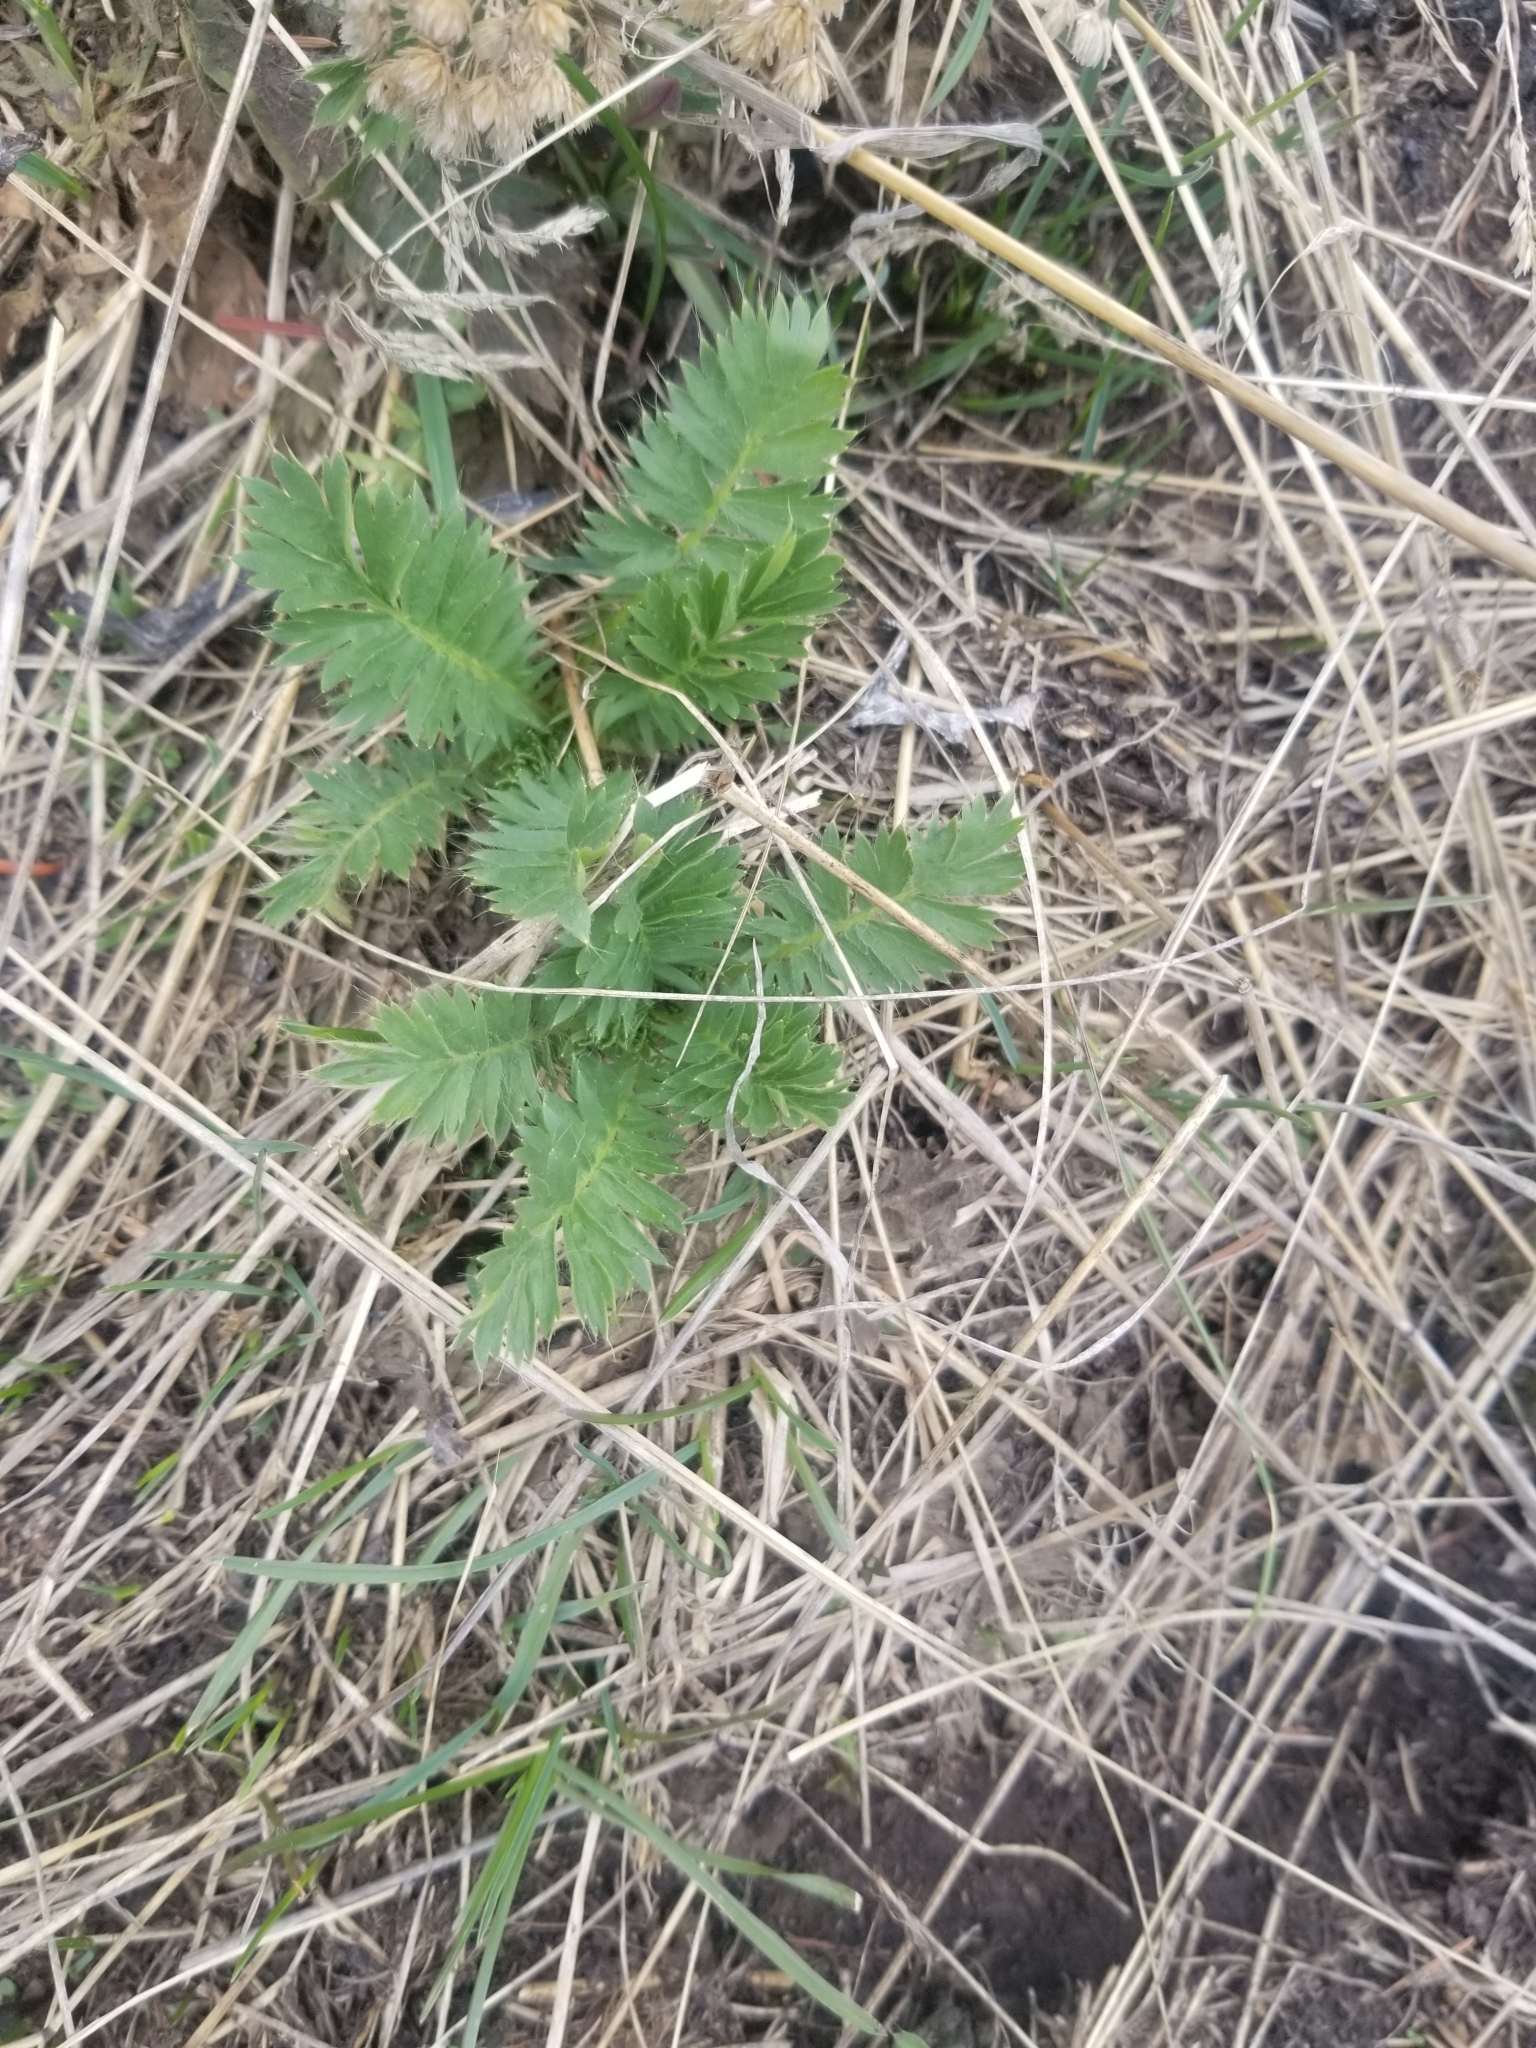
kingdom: Plantae
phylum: Tracheophyta
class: Magnoliopsida
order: Rosales
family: Rosaceae
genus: Geum
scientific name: Geum triflorum
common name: Old man's whiskers
